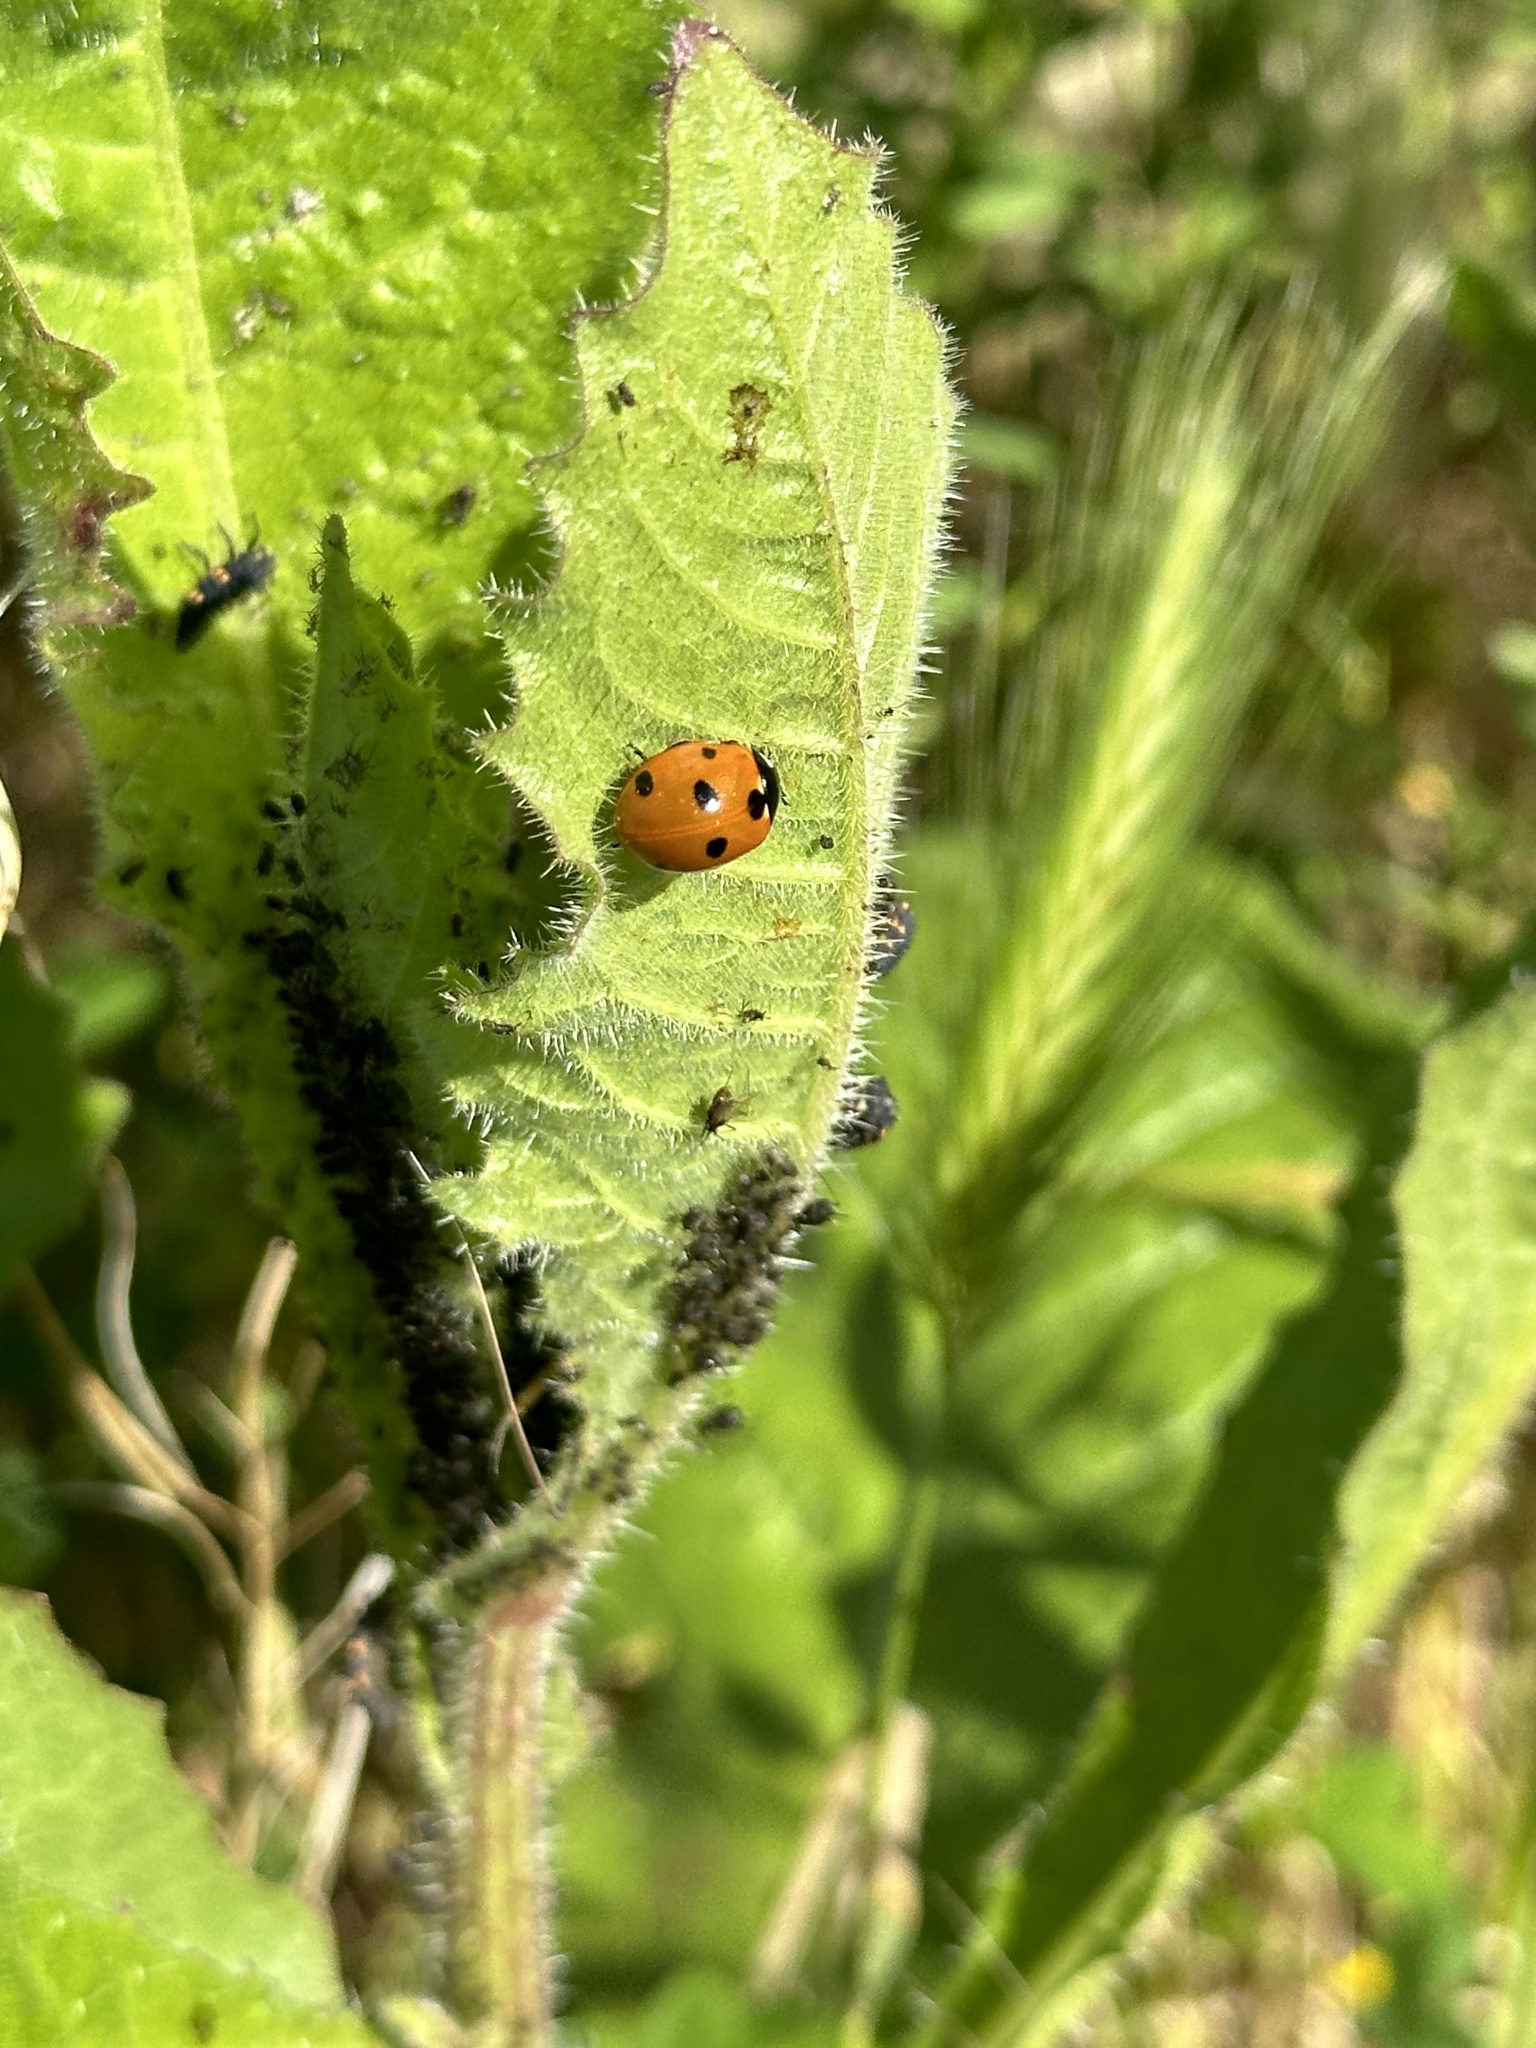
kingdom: Animalia
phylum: Arthropoda
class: Insecta
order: Coleoptera
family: Coccinellidae
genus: Coccinella
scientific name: Coccinella septempunctata
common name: Sevenspotted lady beetle
